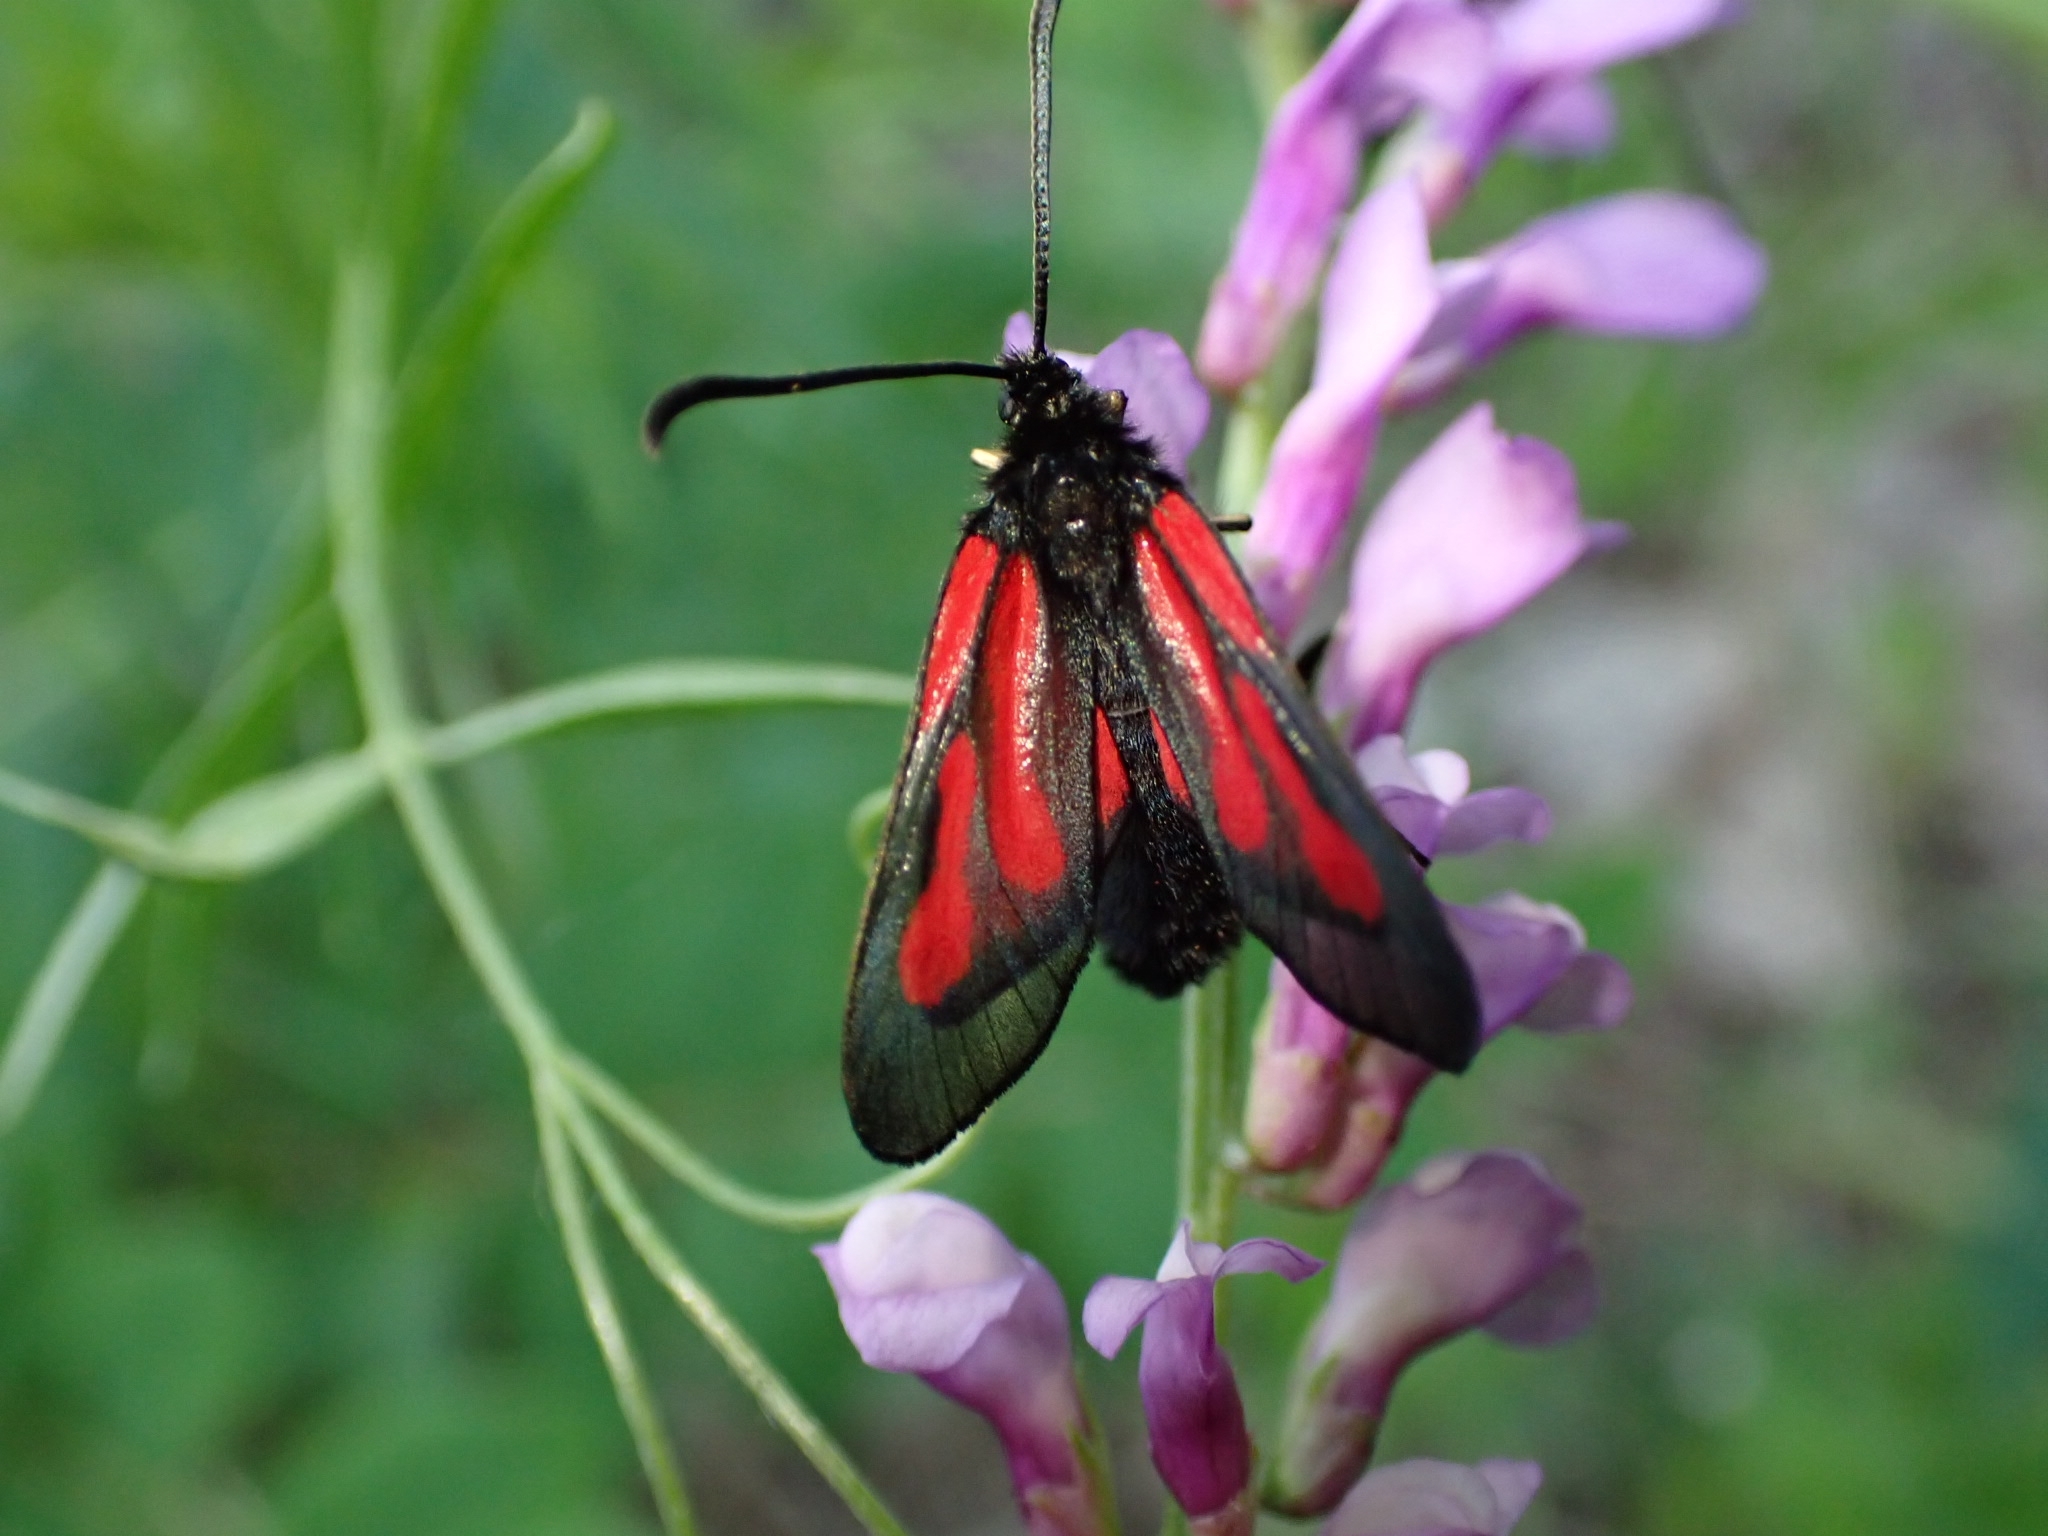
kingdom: Animalia
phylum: Arthropoda
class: Insecta
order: Lepidoptera
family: Zygaenidae
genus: Zygaena
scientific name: Zygaena osterodensis
